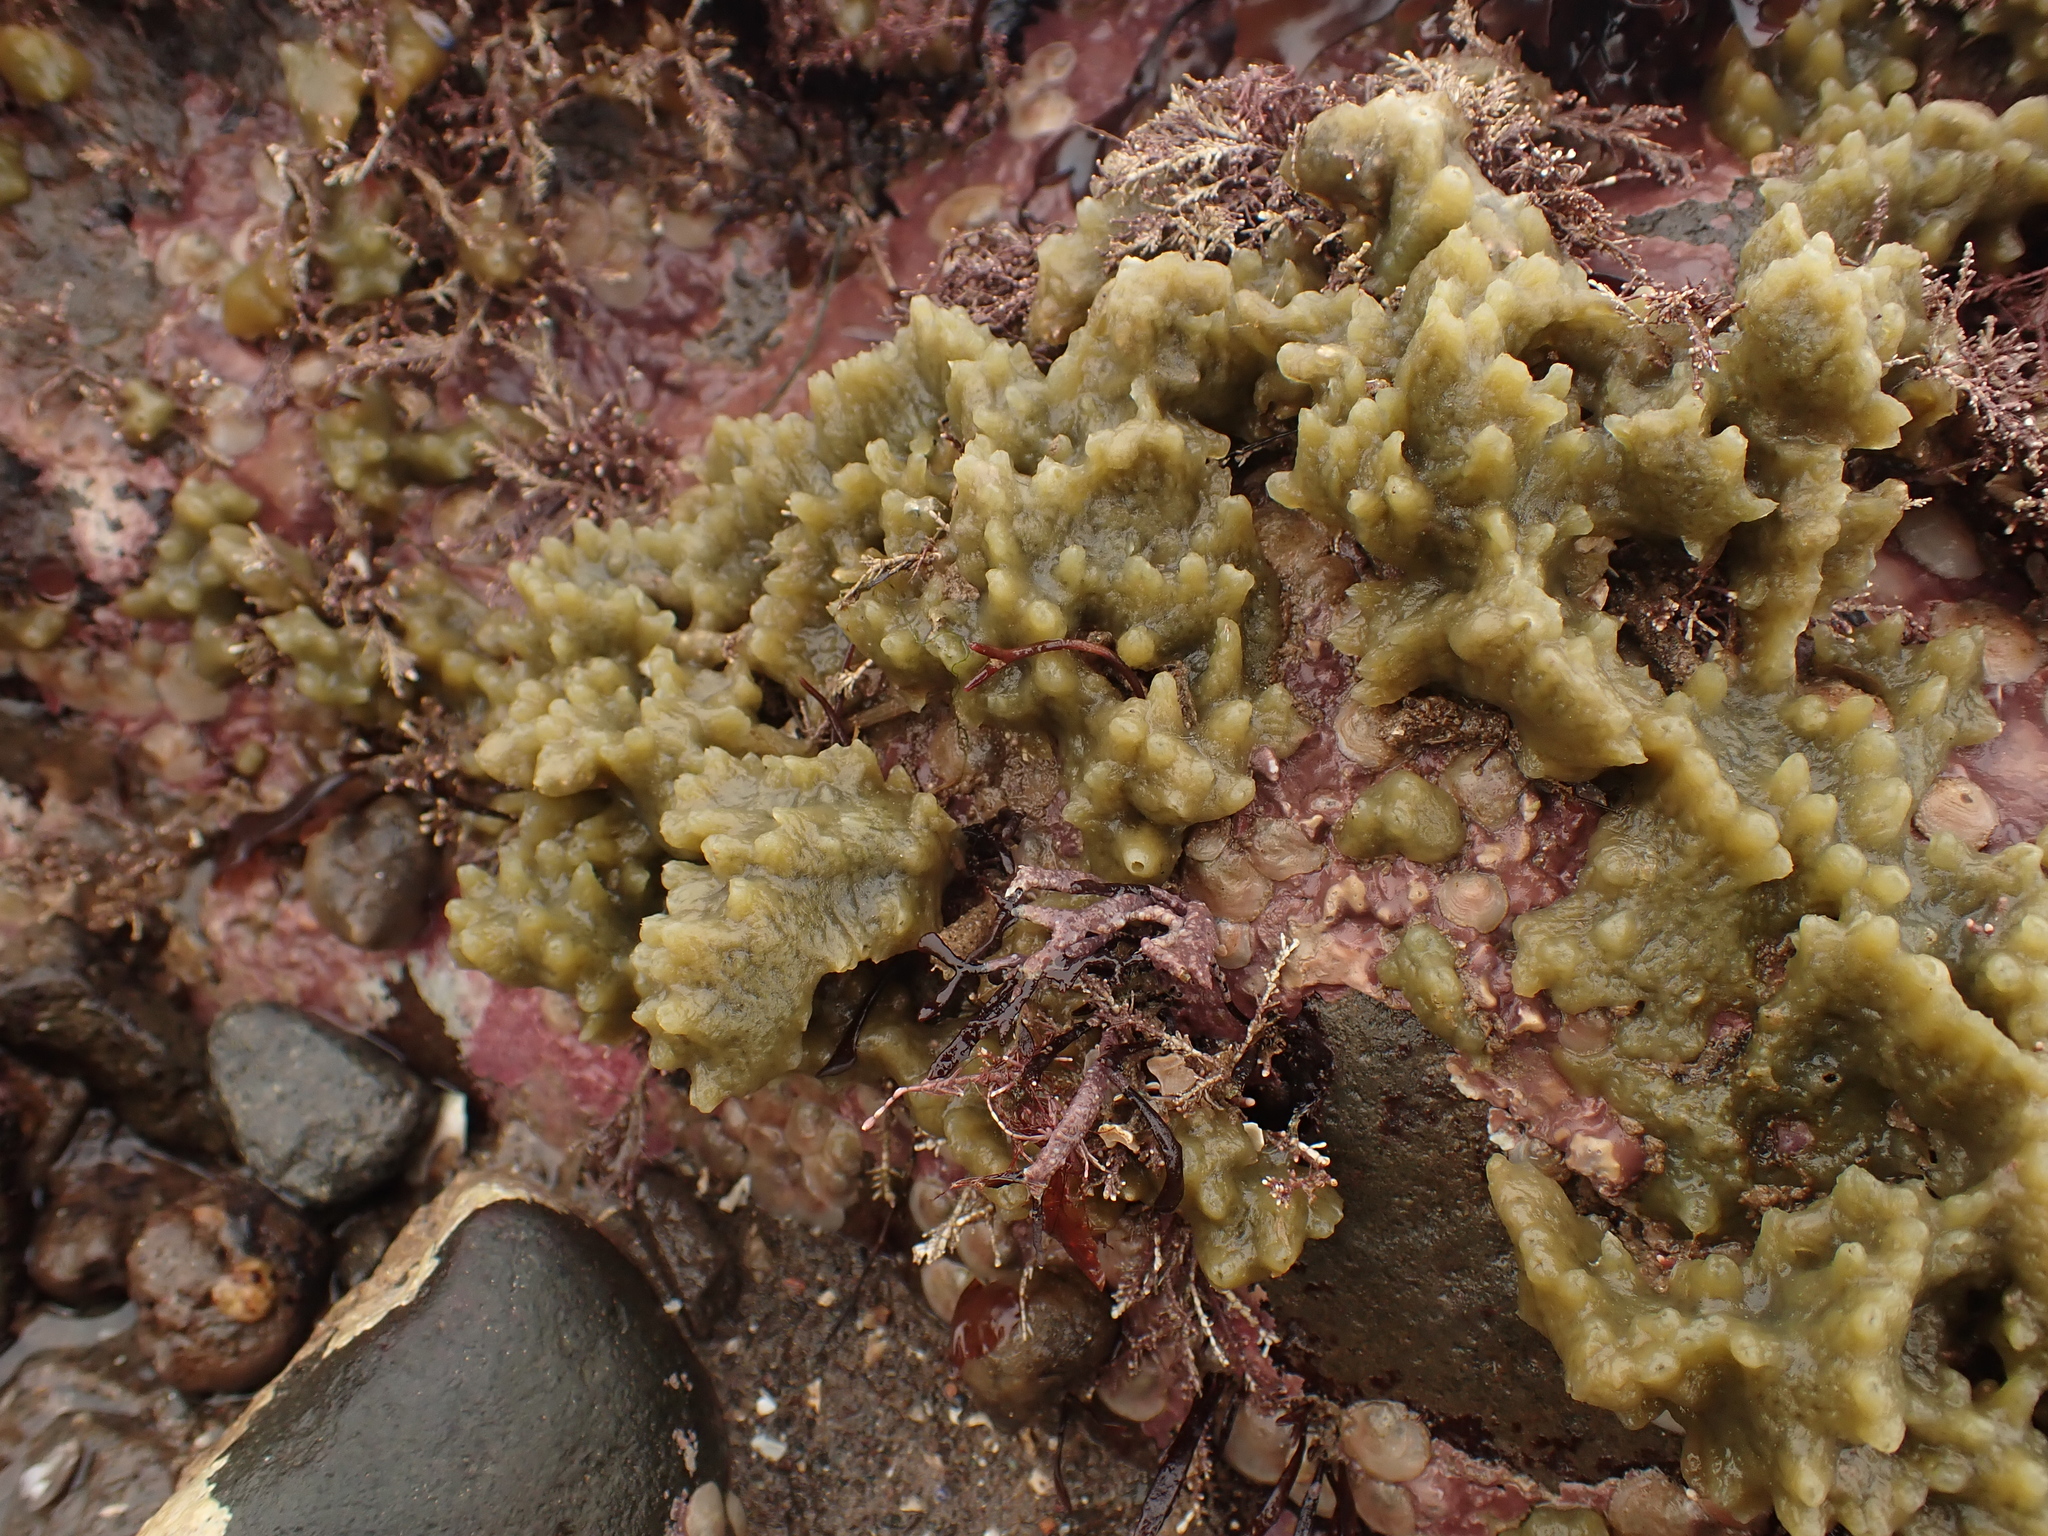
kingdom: Animalia
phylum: Porifera
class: Demospongiae
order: Suberitida
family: Halichondriidae
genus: Halichondria
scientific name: Halichondria panicea
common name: Breadcrumb sponge
